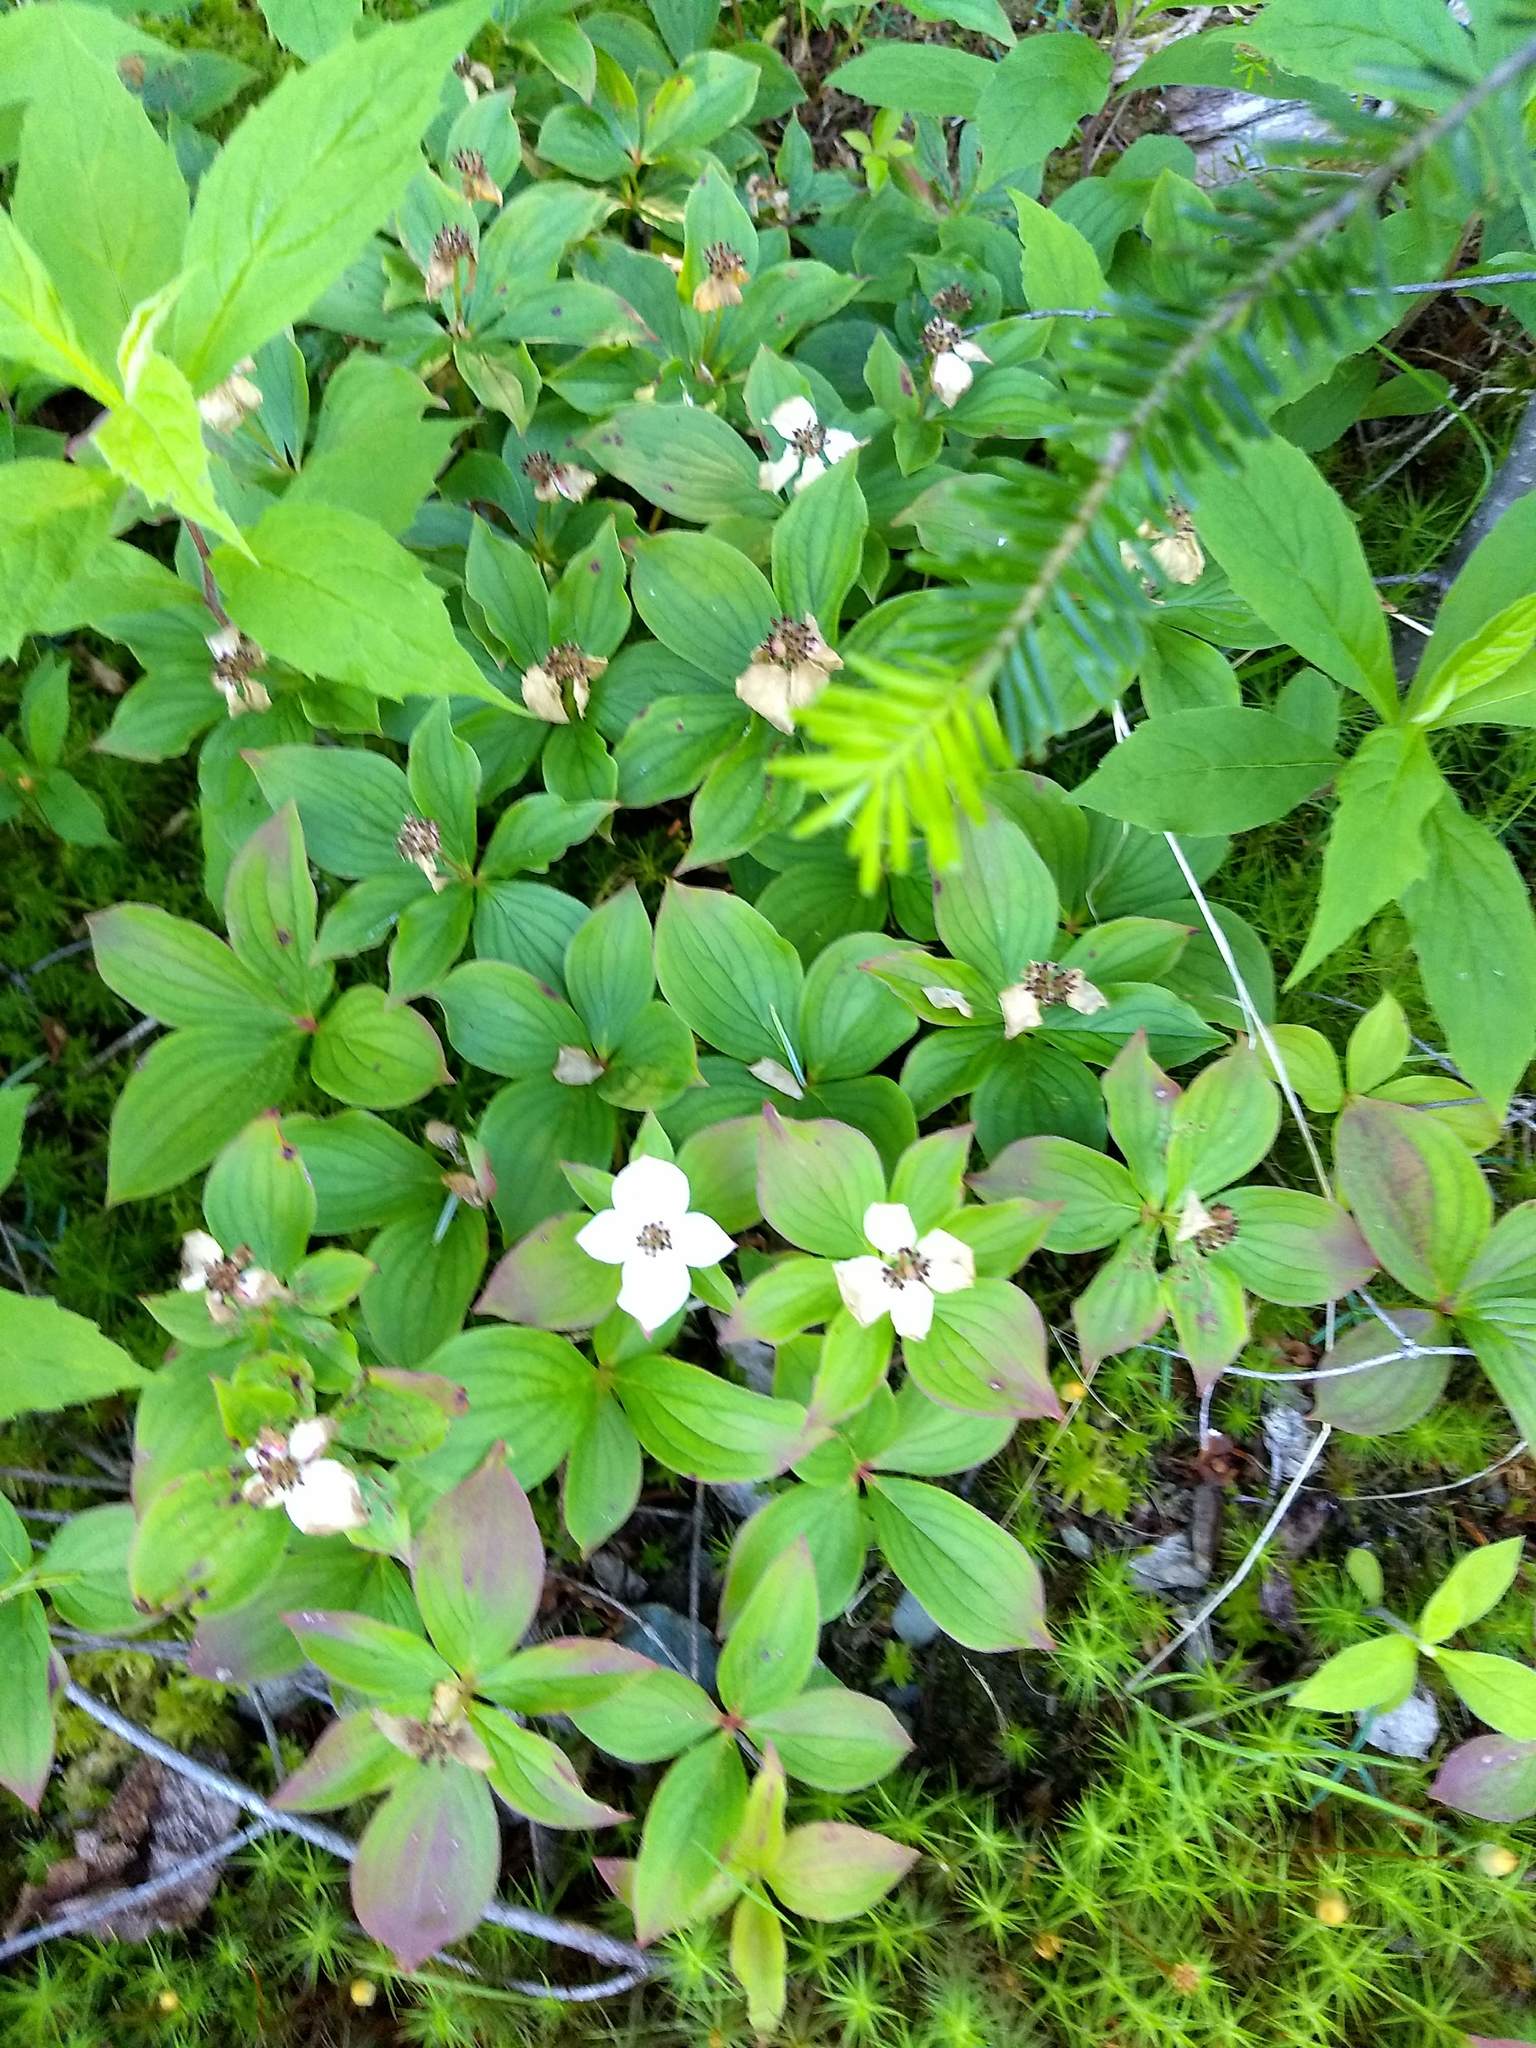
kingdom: Plantae
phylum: Tracheophyta
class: Magnoliopsida
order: Cornales
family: Cornaceae
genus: Cornus
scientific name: Cornus canadensis
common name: Creeping dogwood
